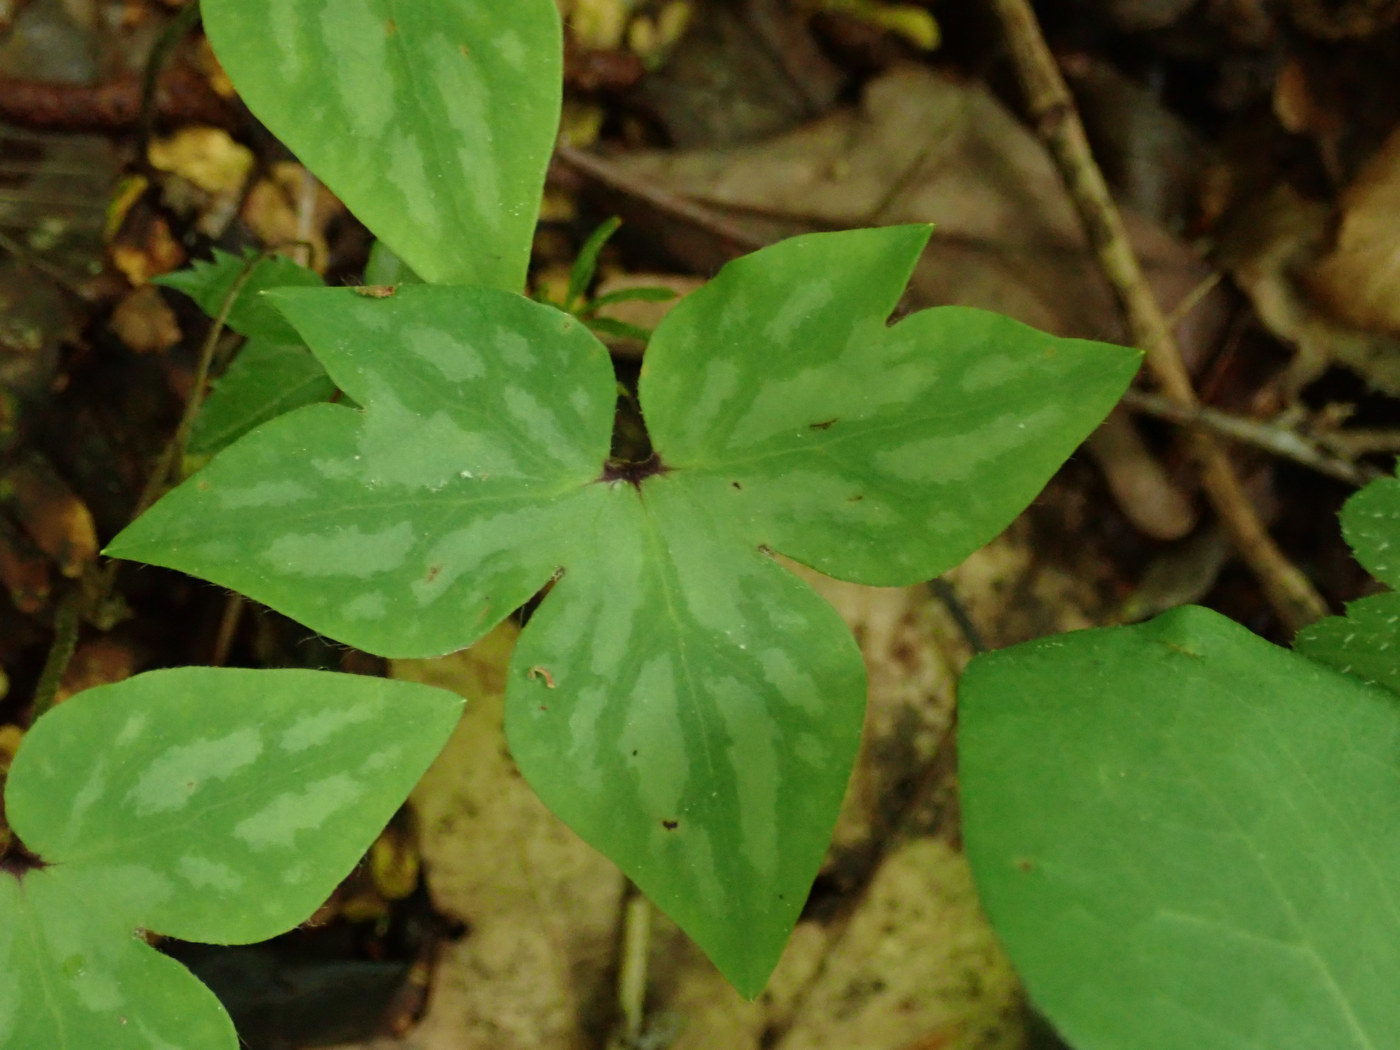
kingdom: Plantae
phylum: Tracheophyta
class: Magnoliopsida
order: Ranunculales
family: Ranunculaceae
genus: Hepatica
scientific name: Hepatica acutiloba
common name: Sharp-lobed hepatica
